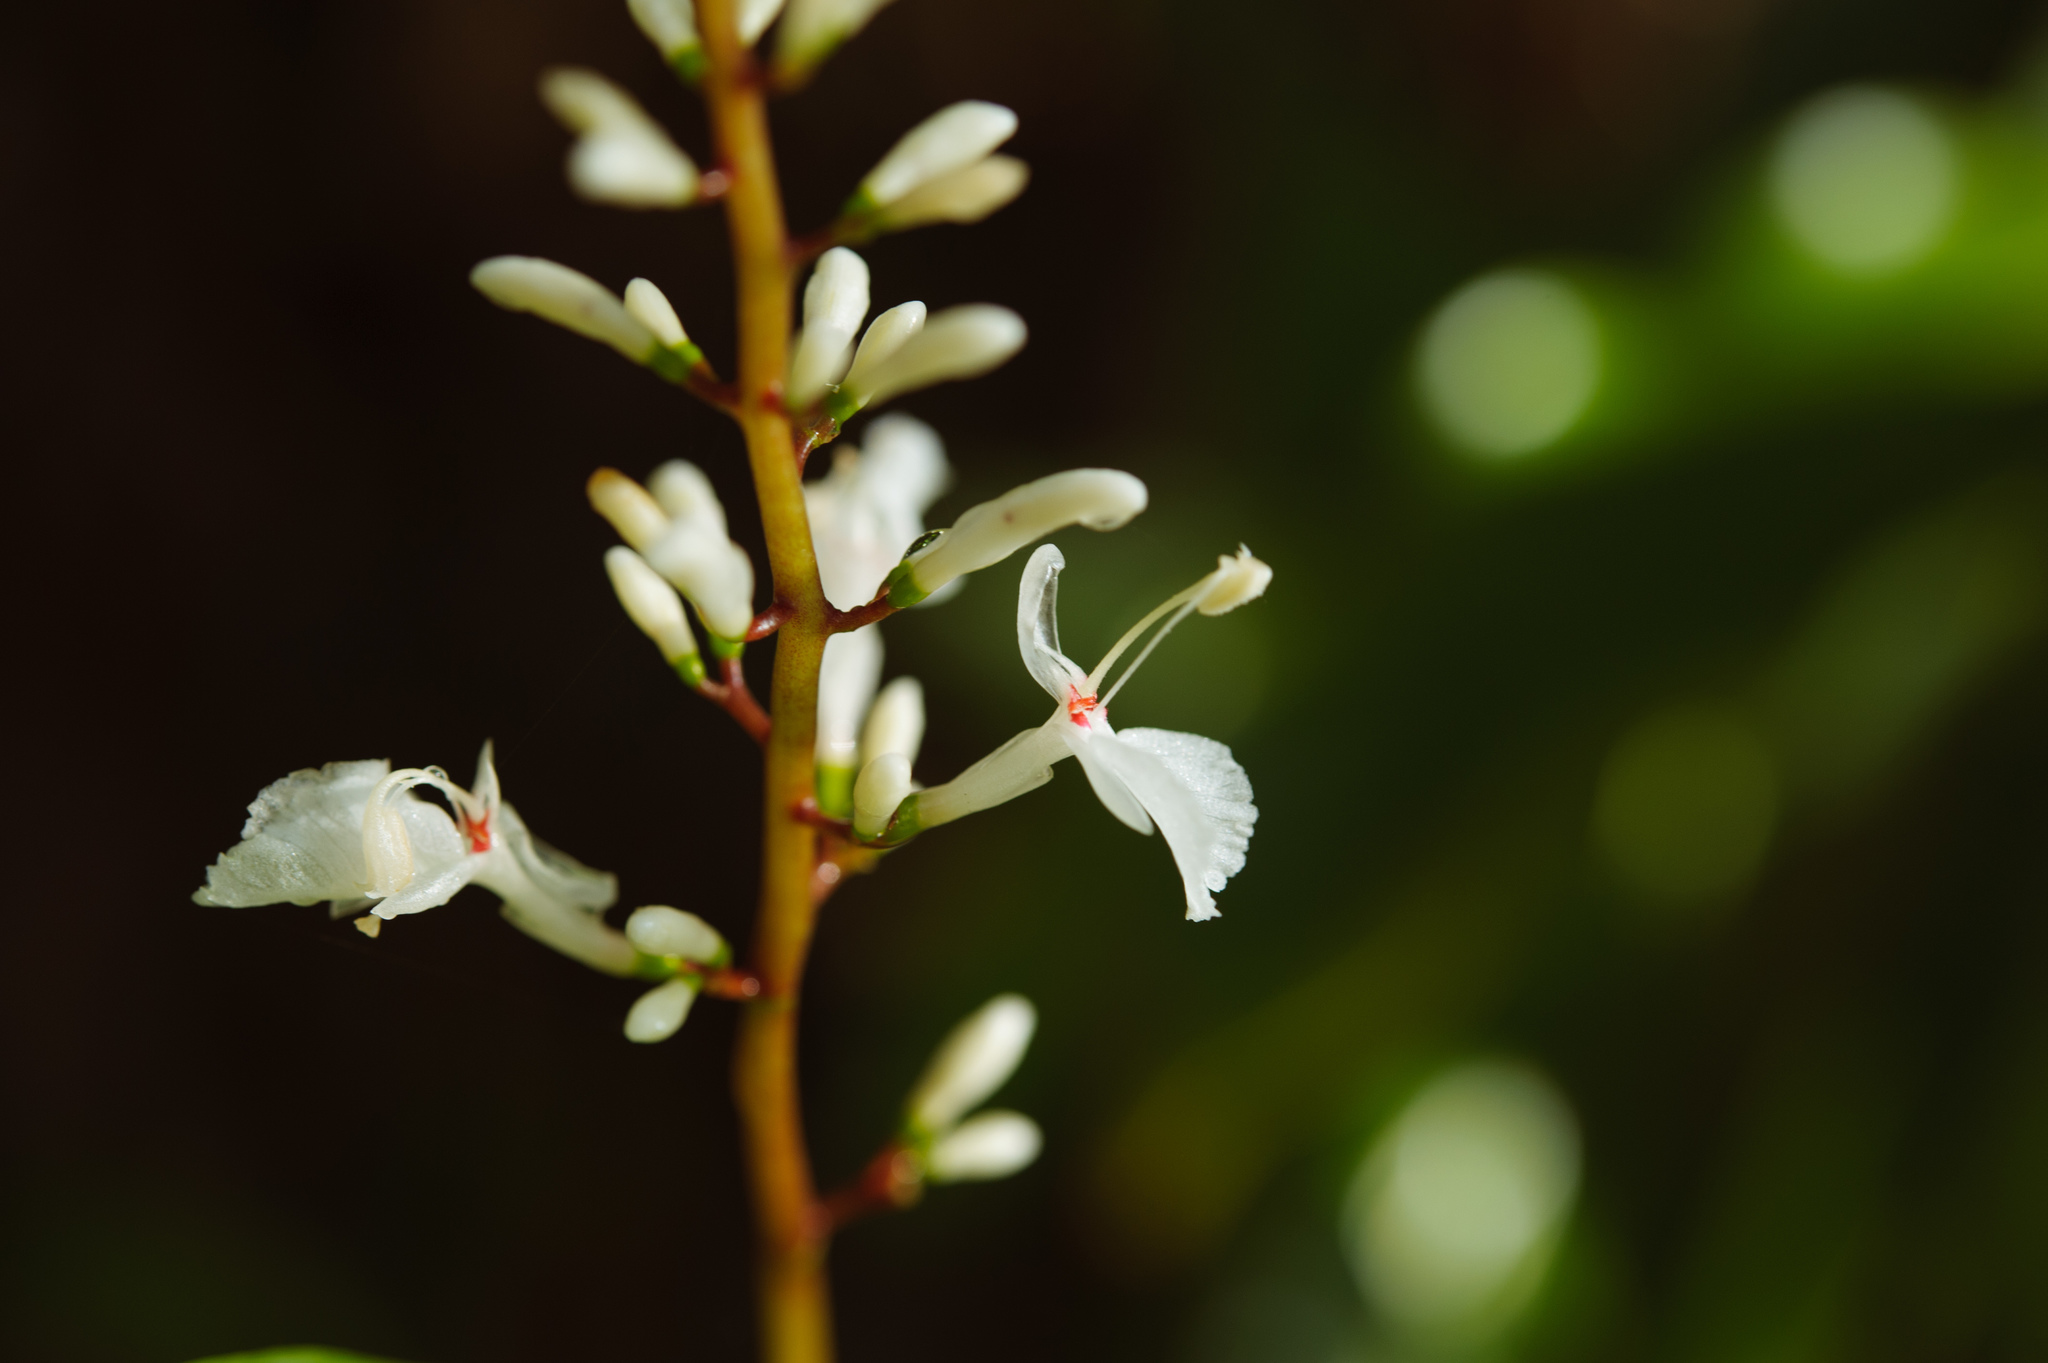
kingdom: Plantae
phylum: Tracheophyta
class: Liliopsida
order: Zingiberales
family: Zingiberaceae
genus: Alpinia
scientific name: Alpinia intermedia
